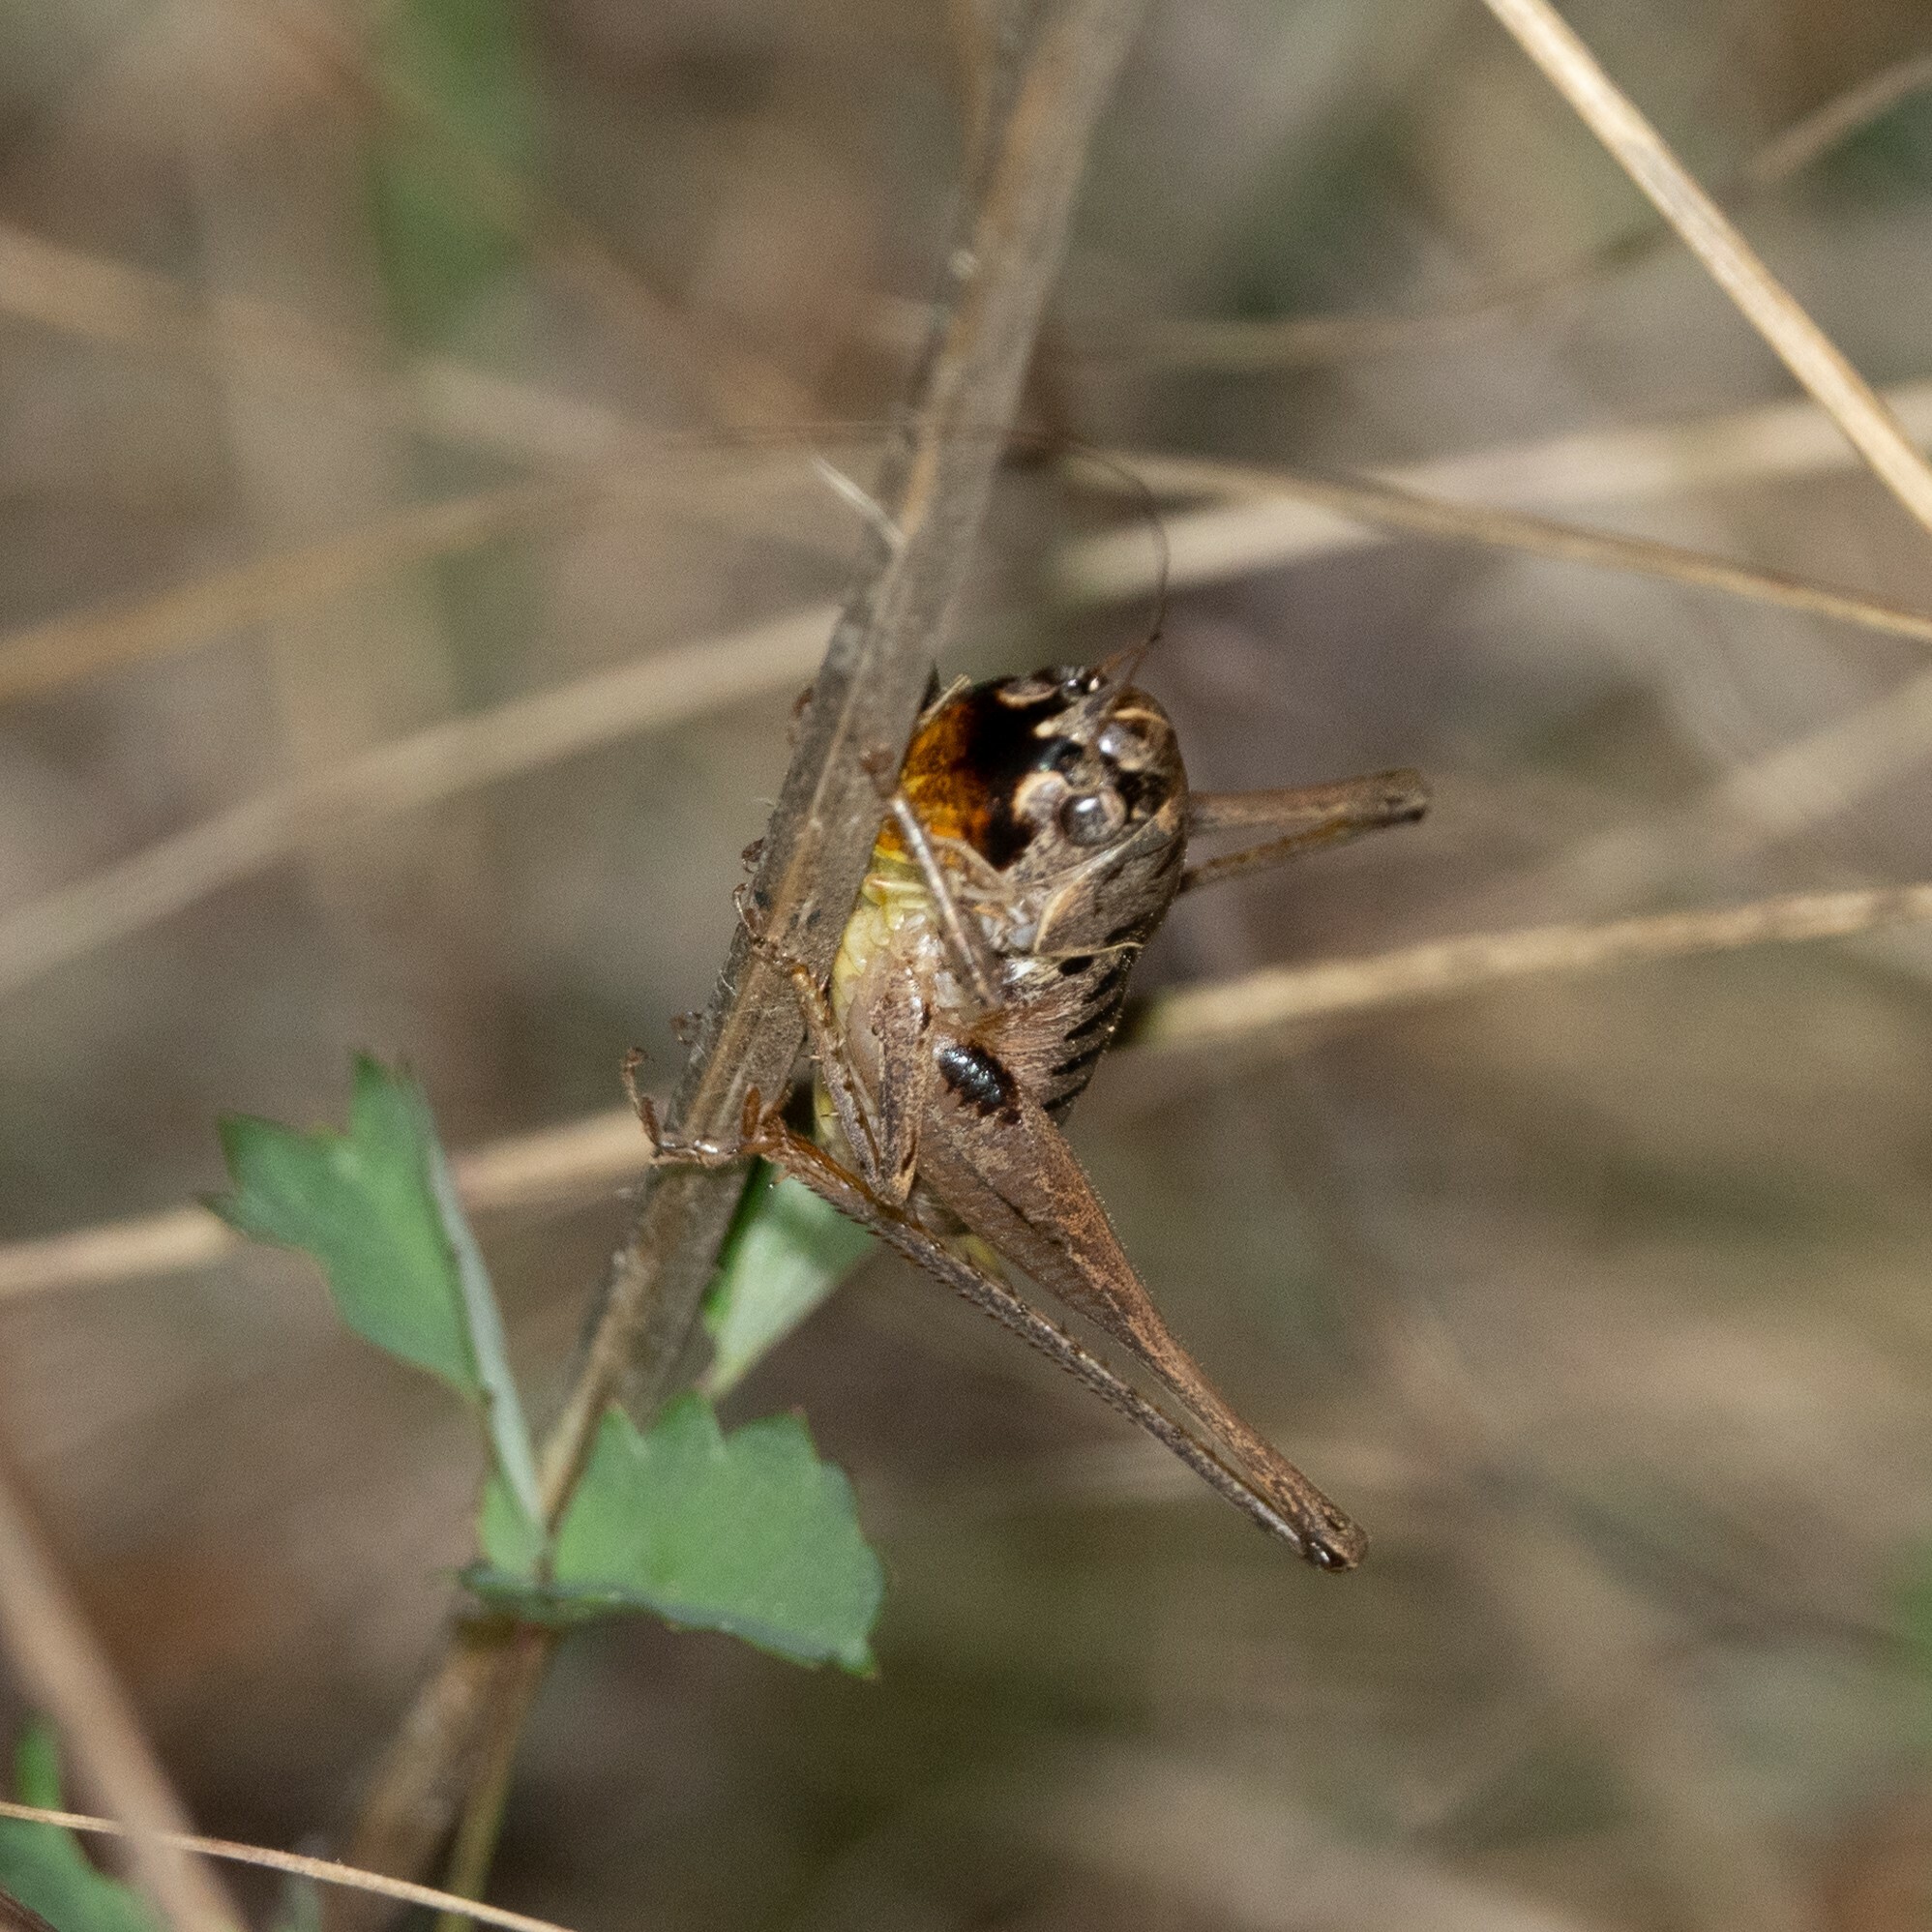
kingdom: Animalia
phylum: Arthropoda
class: Insecta
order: Orthoptera
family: Tettigoniidae
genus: Bucephaloptera
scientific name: Bucephaloptera bucephala
